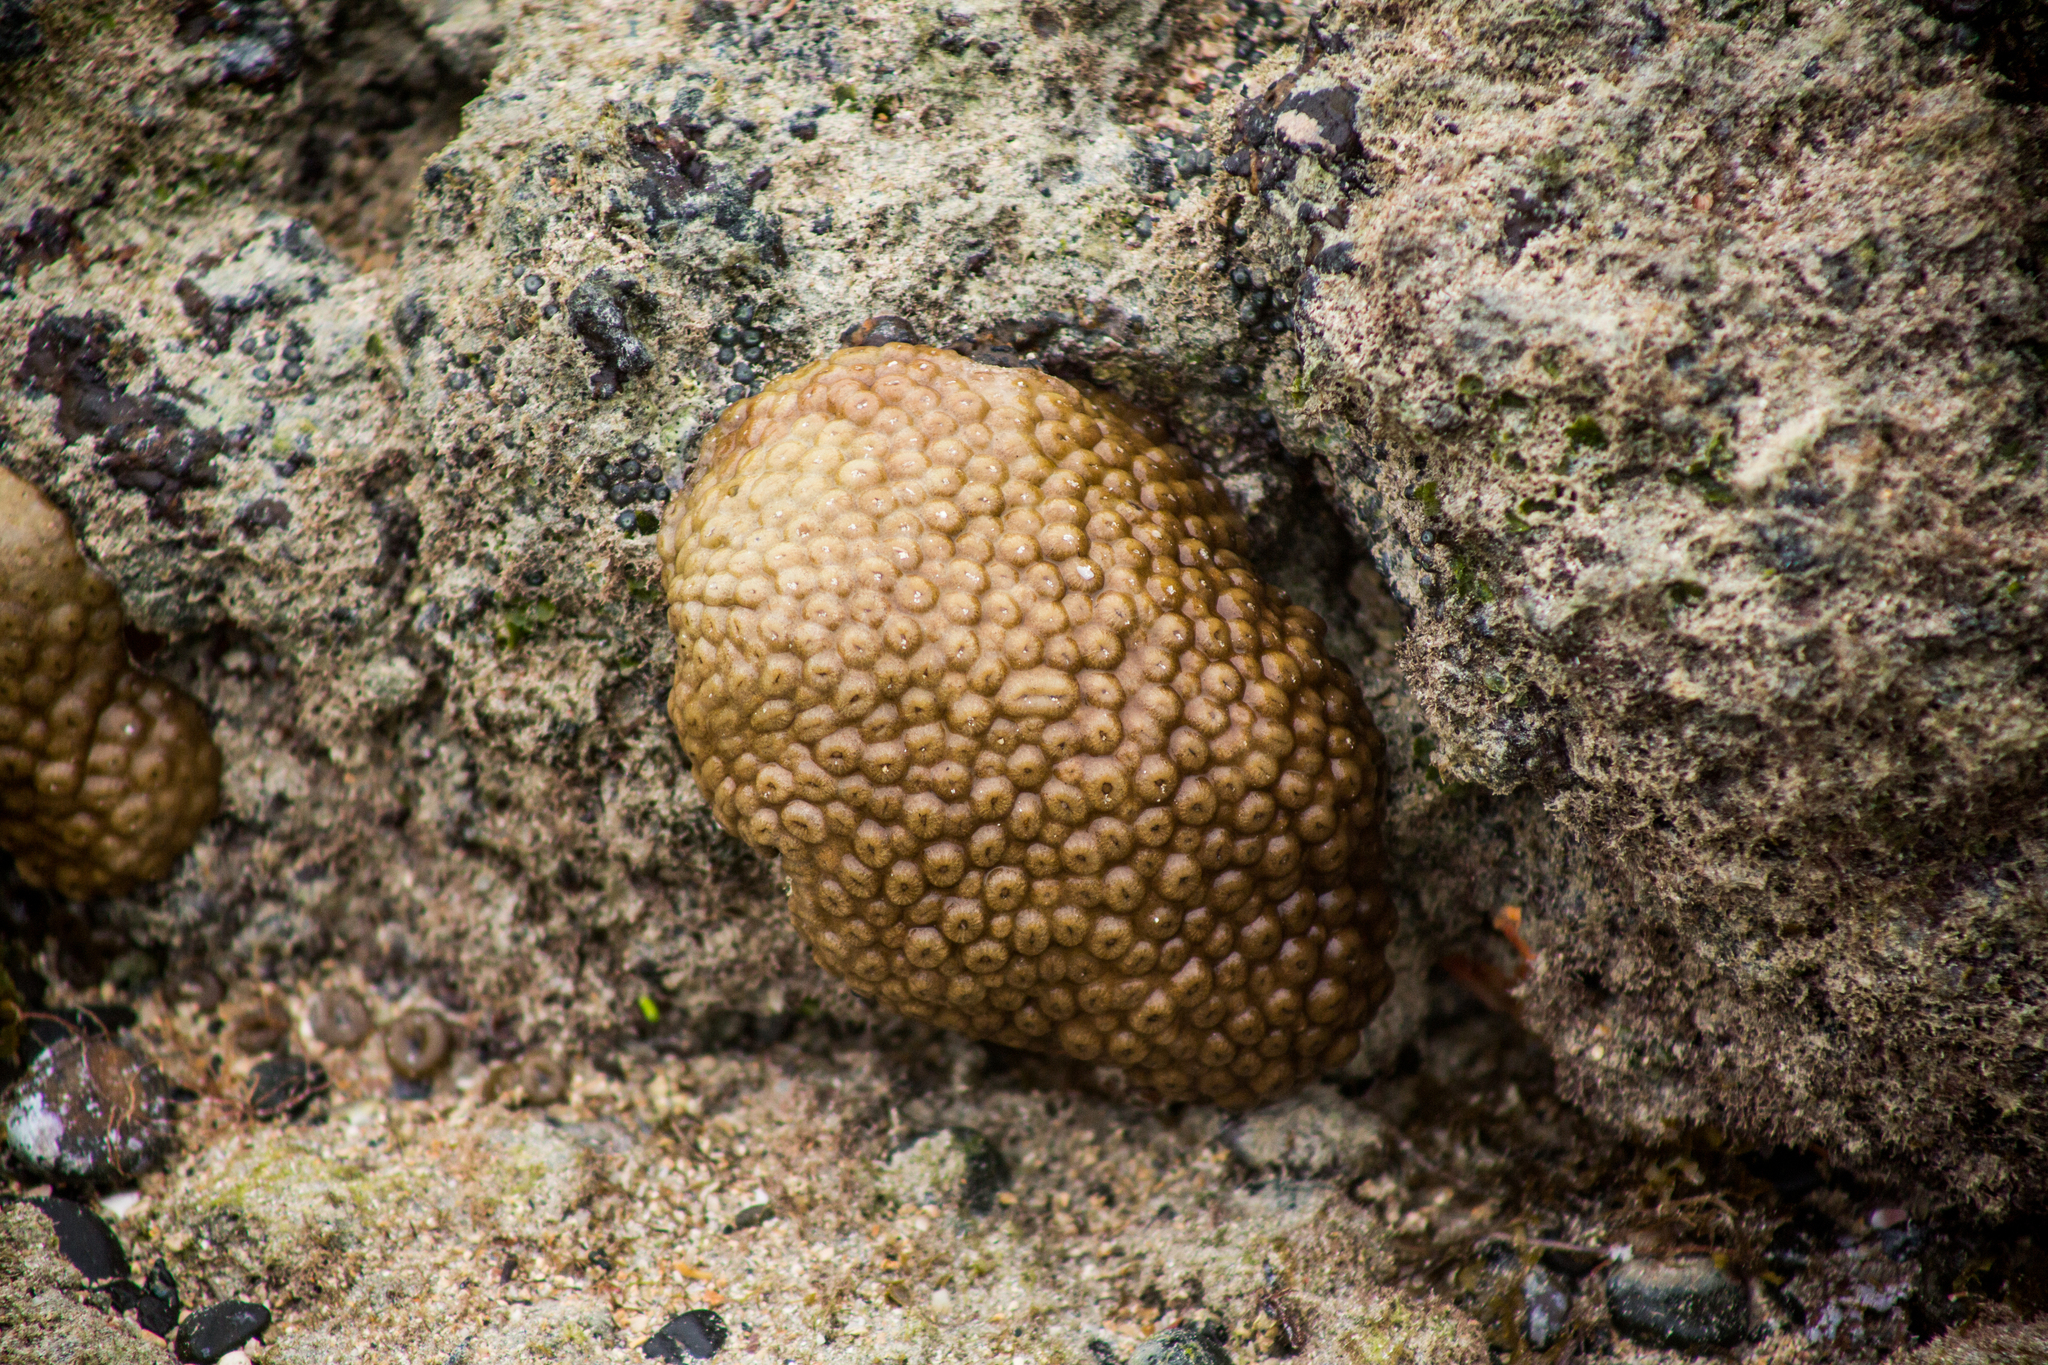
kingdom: Animalia
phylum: Cnidaria
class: Anthozoa
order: Zoantharia
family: Sphenopidae
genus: Palythoa
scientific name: Palythoa caribaeorum
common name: Encrusting colonial anemone
